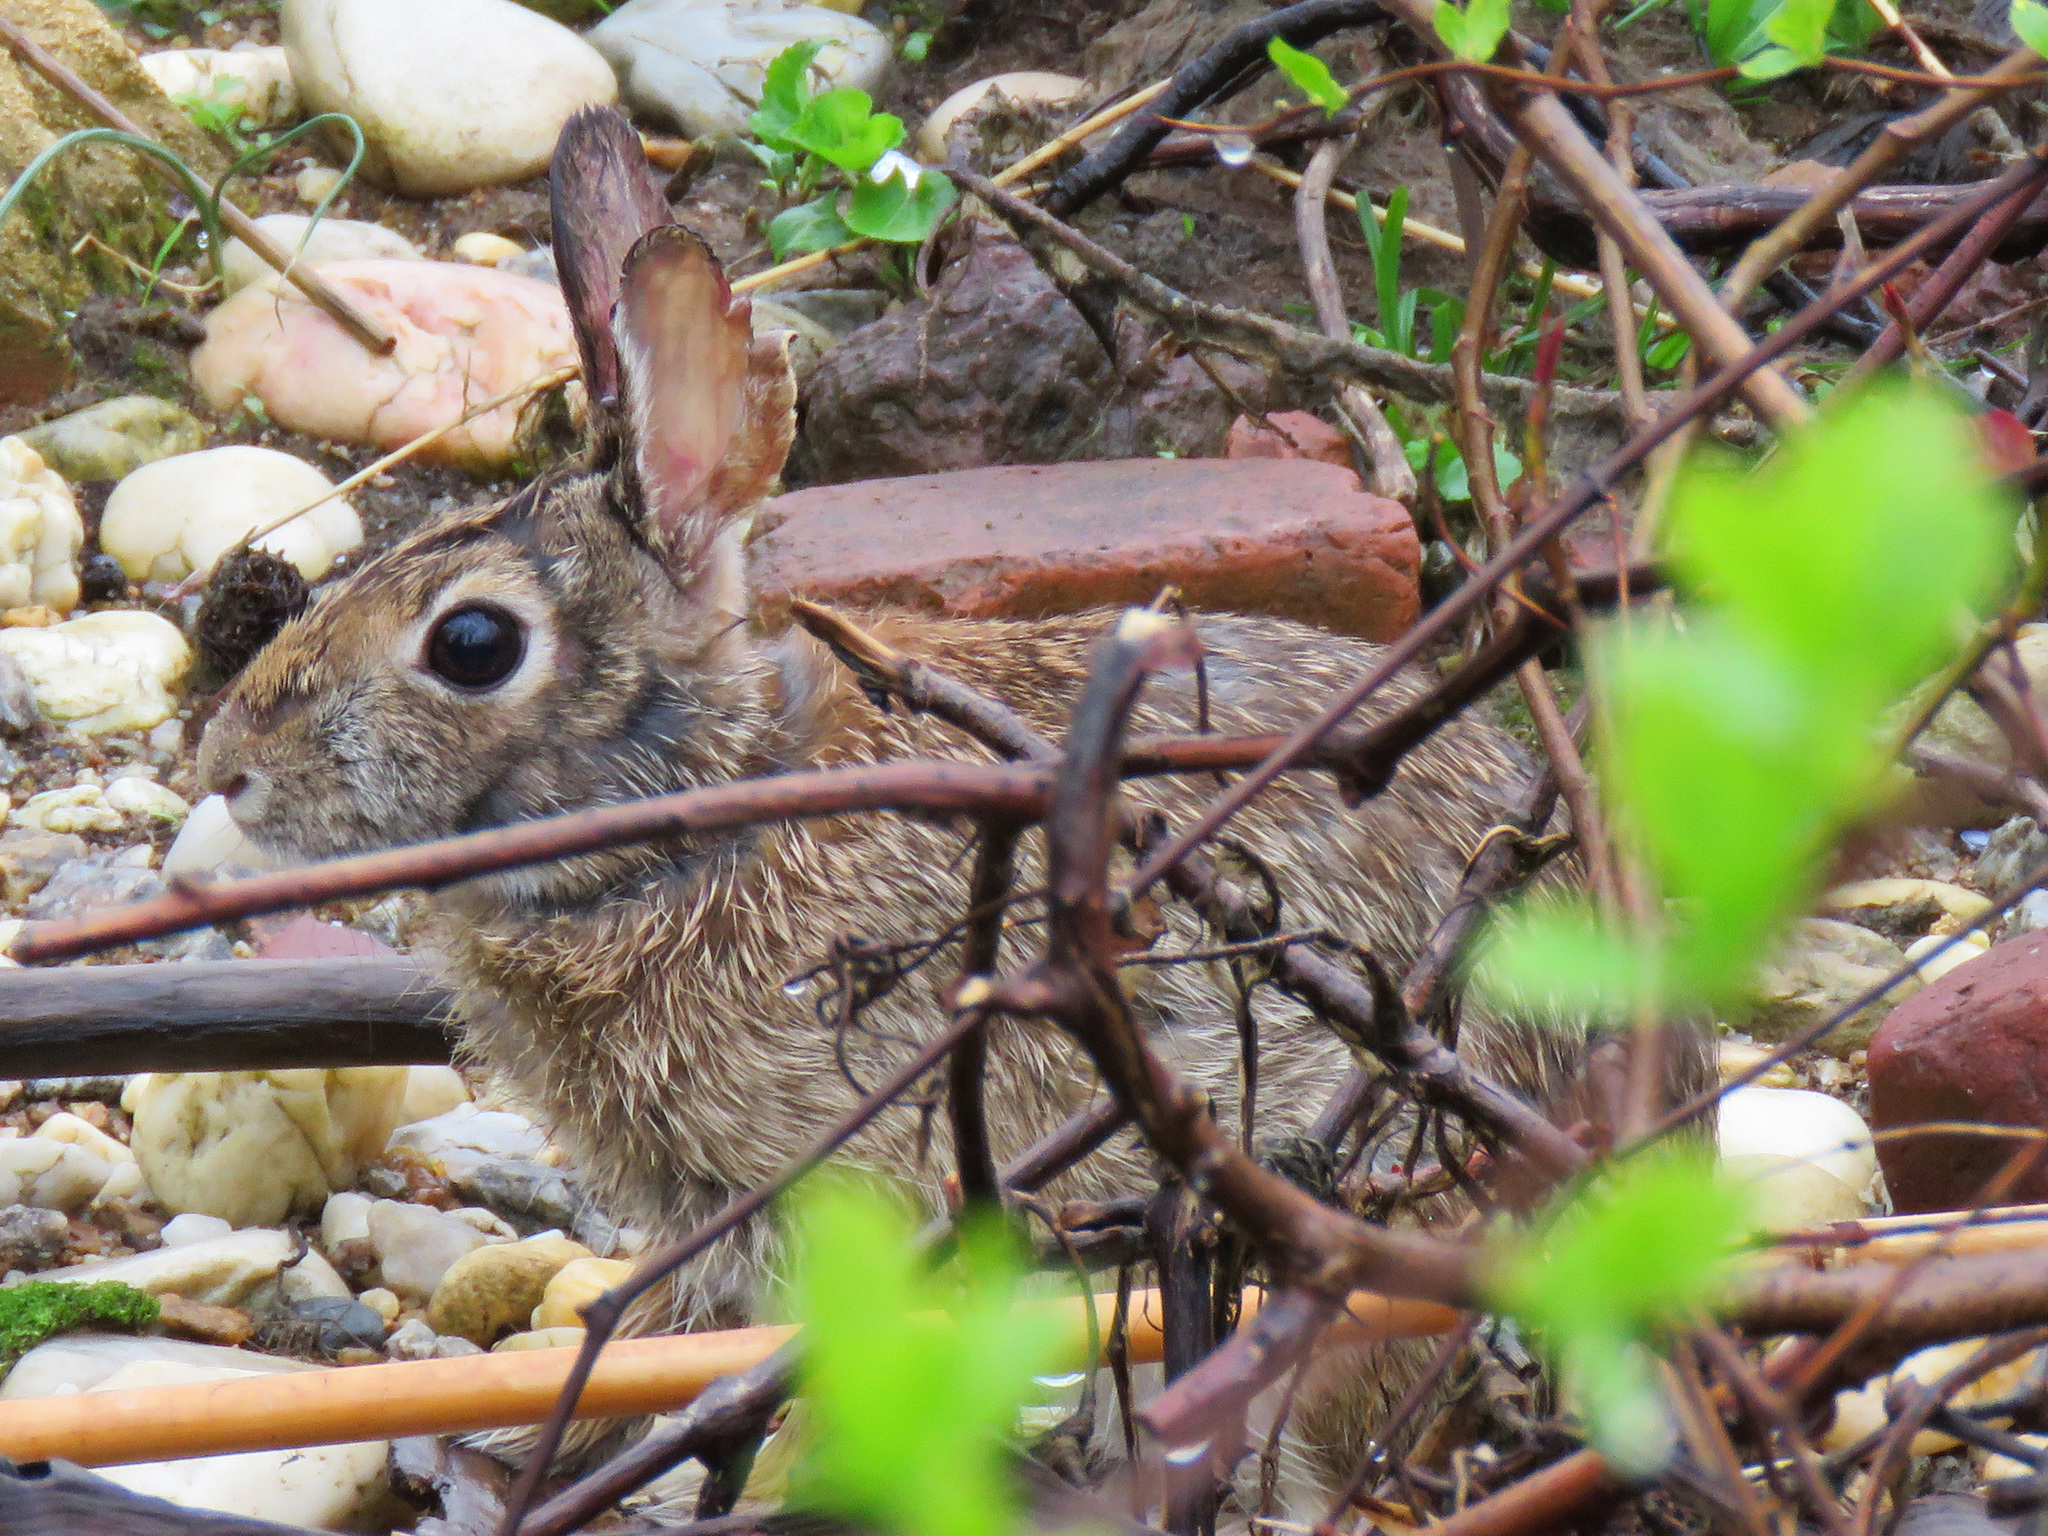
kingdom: Animalia
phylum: Chordata
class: Mammalia
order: Lagomorpha
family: Leporidae
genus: Sylvilagus
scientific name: Sylvilagus floridanus
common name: Eastern cottontail
